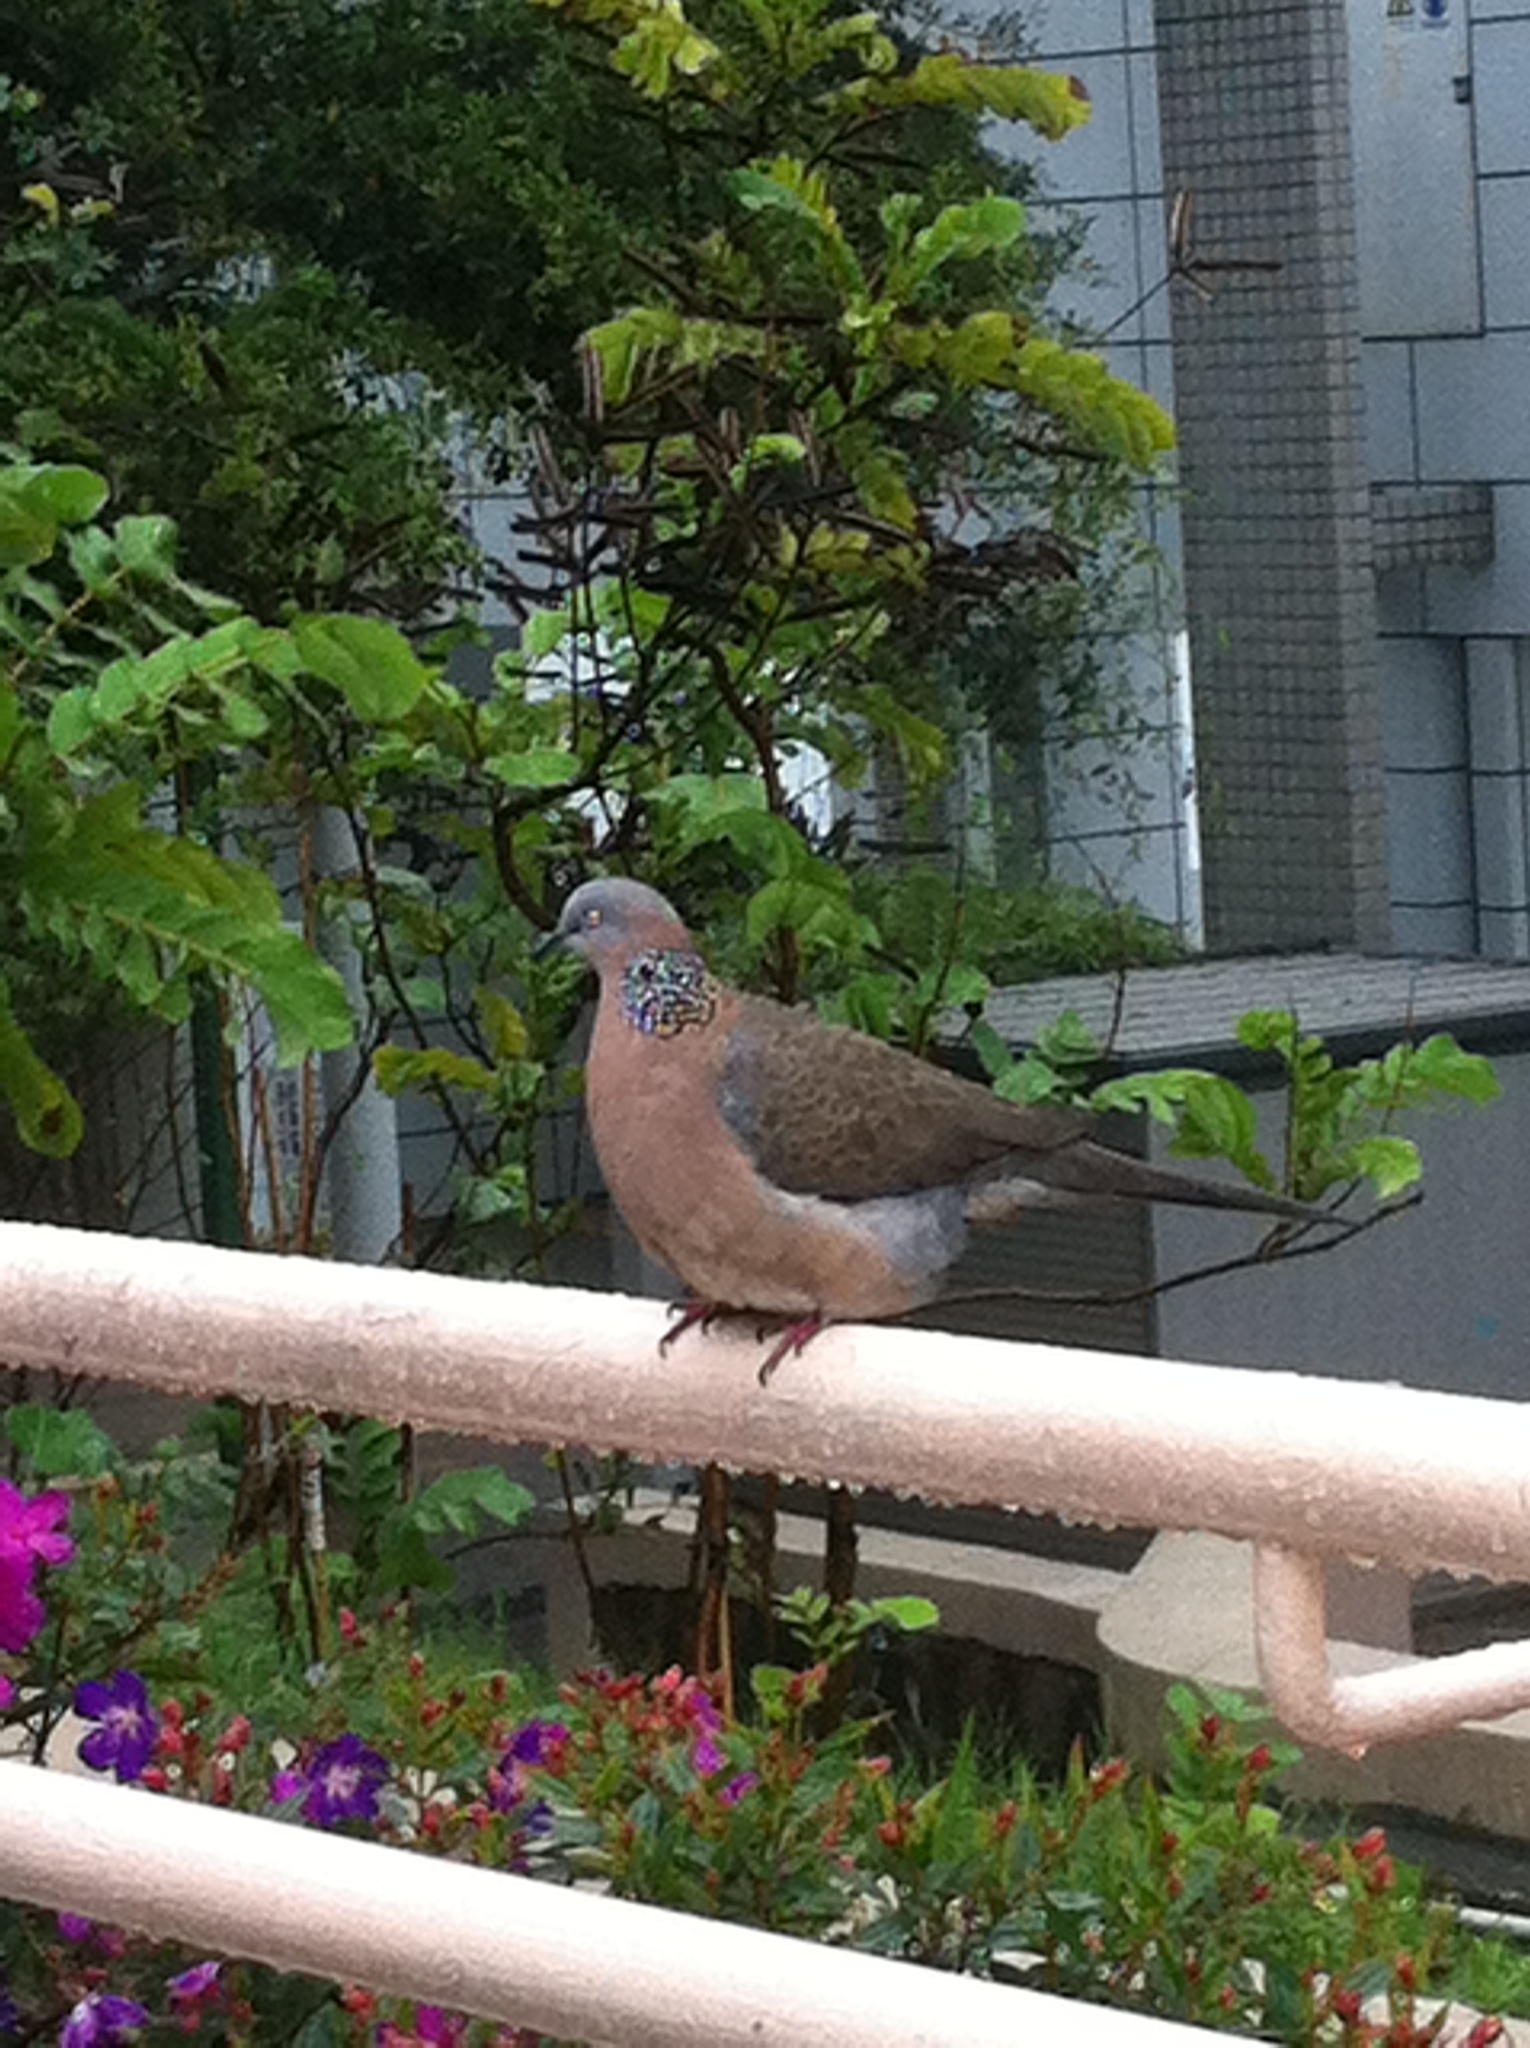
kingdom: Animalia
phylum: Chordata
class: Aves
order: Columbiformes
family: Columbidae
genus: Spilopelia
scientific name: Spilopelia chinensis
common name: Spotted dove
